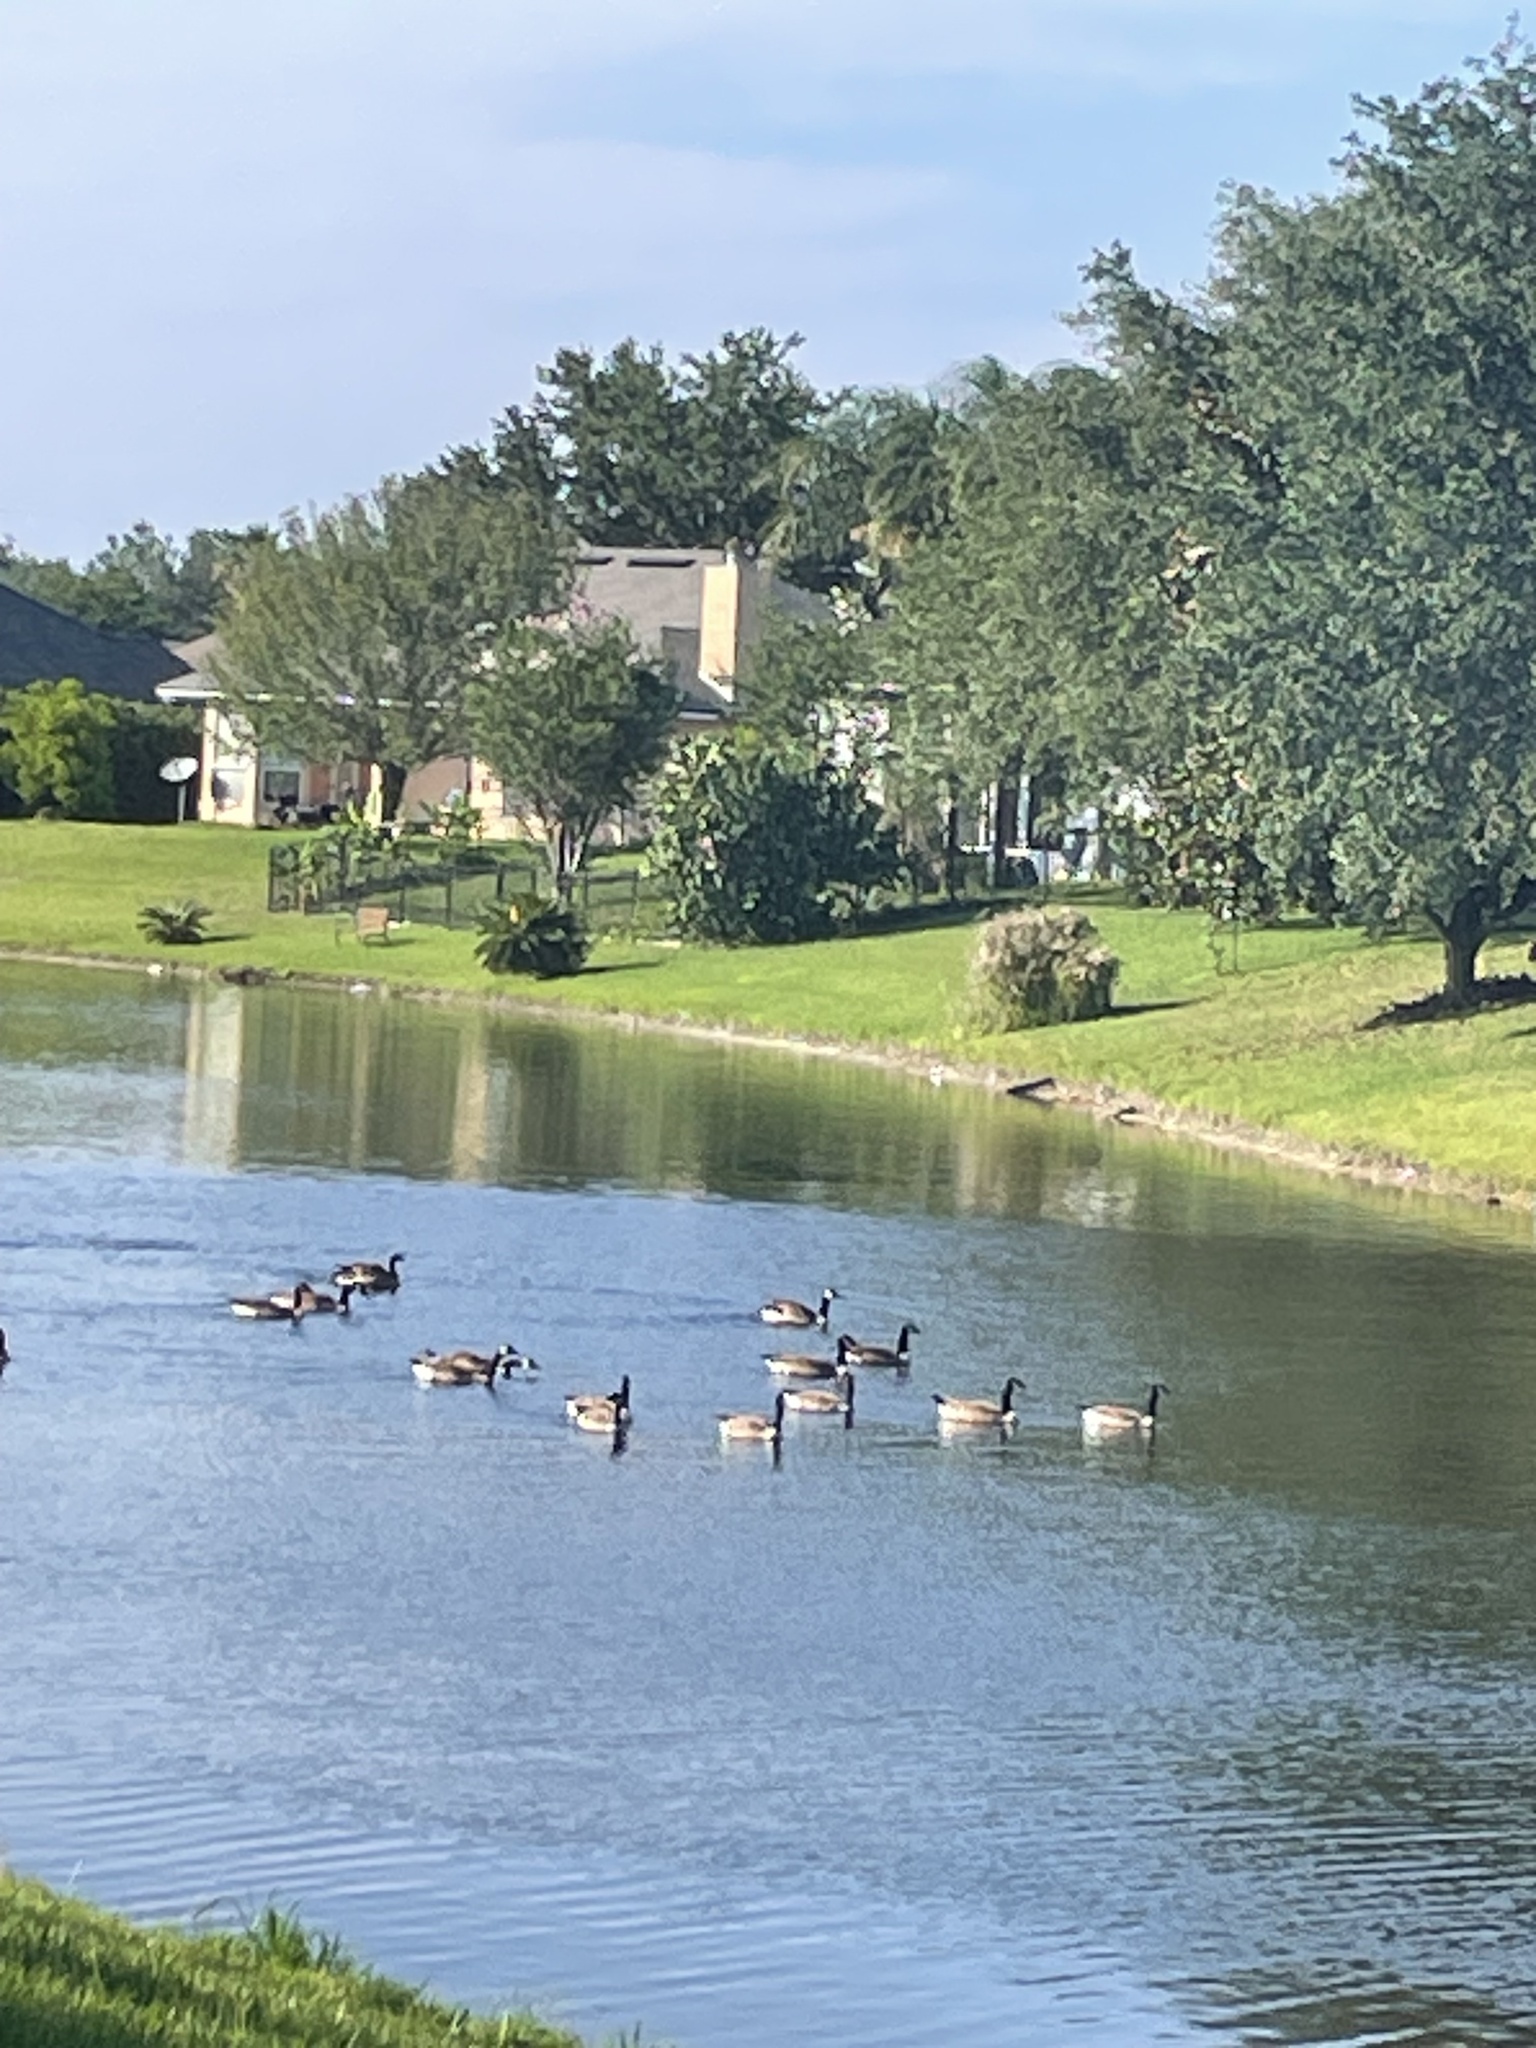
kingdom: Animalia
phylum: Chordata
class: Aves
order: Anseriformes
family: Anatidae
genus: Branta
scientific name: Branta canadensis
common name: Canada goose
